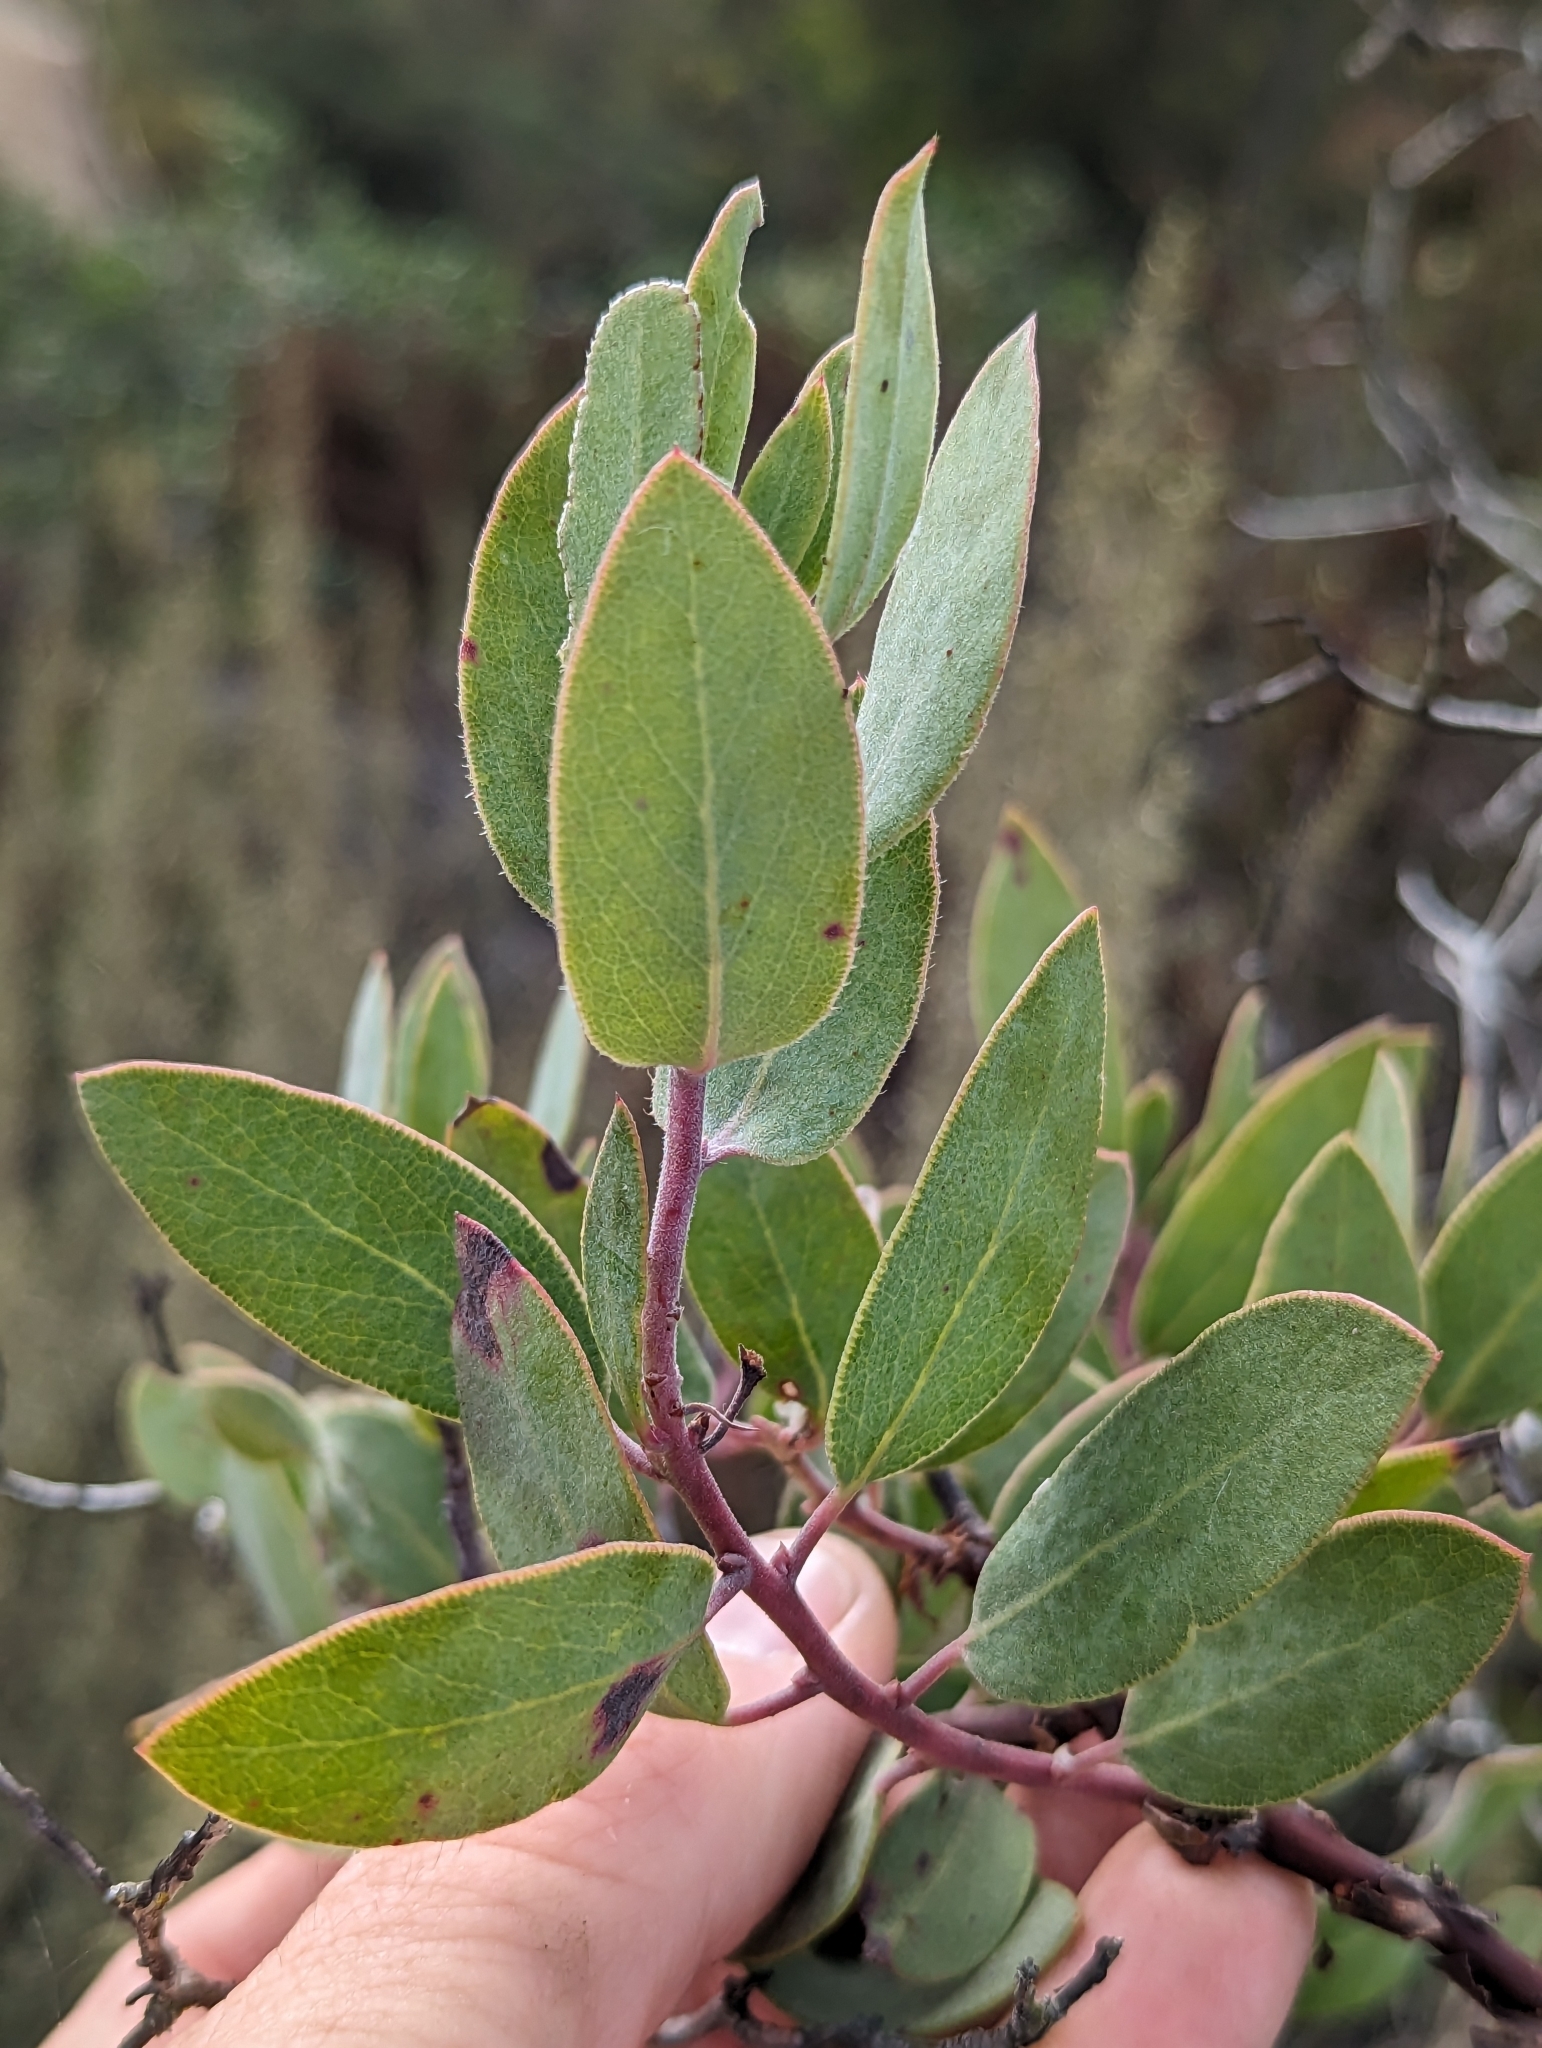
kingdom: Plantae
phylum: Tracheophyta
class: Magnoliopsida
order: Ericales
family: Ericaceae
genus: Arctostaphylos
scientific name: Arctostaphylos glandulosa
